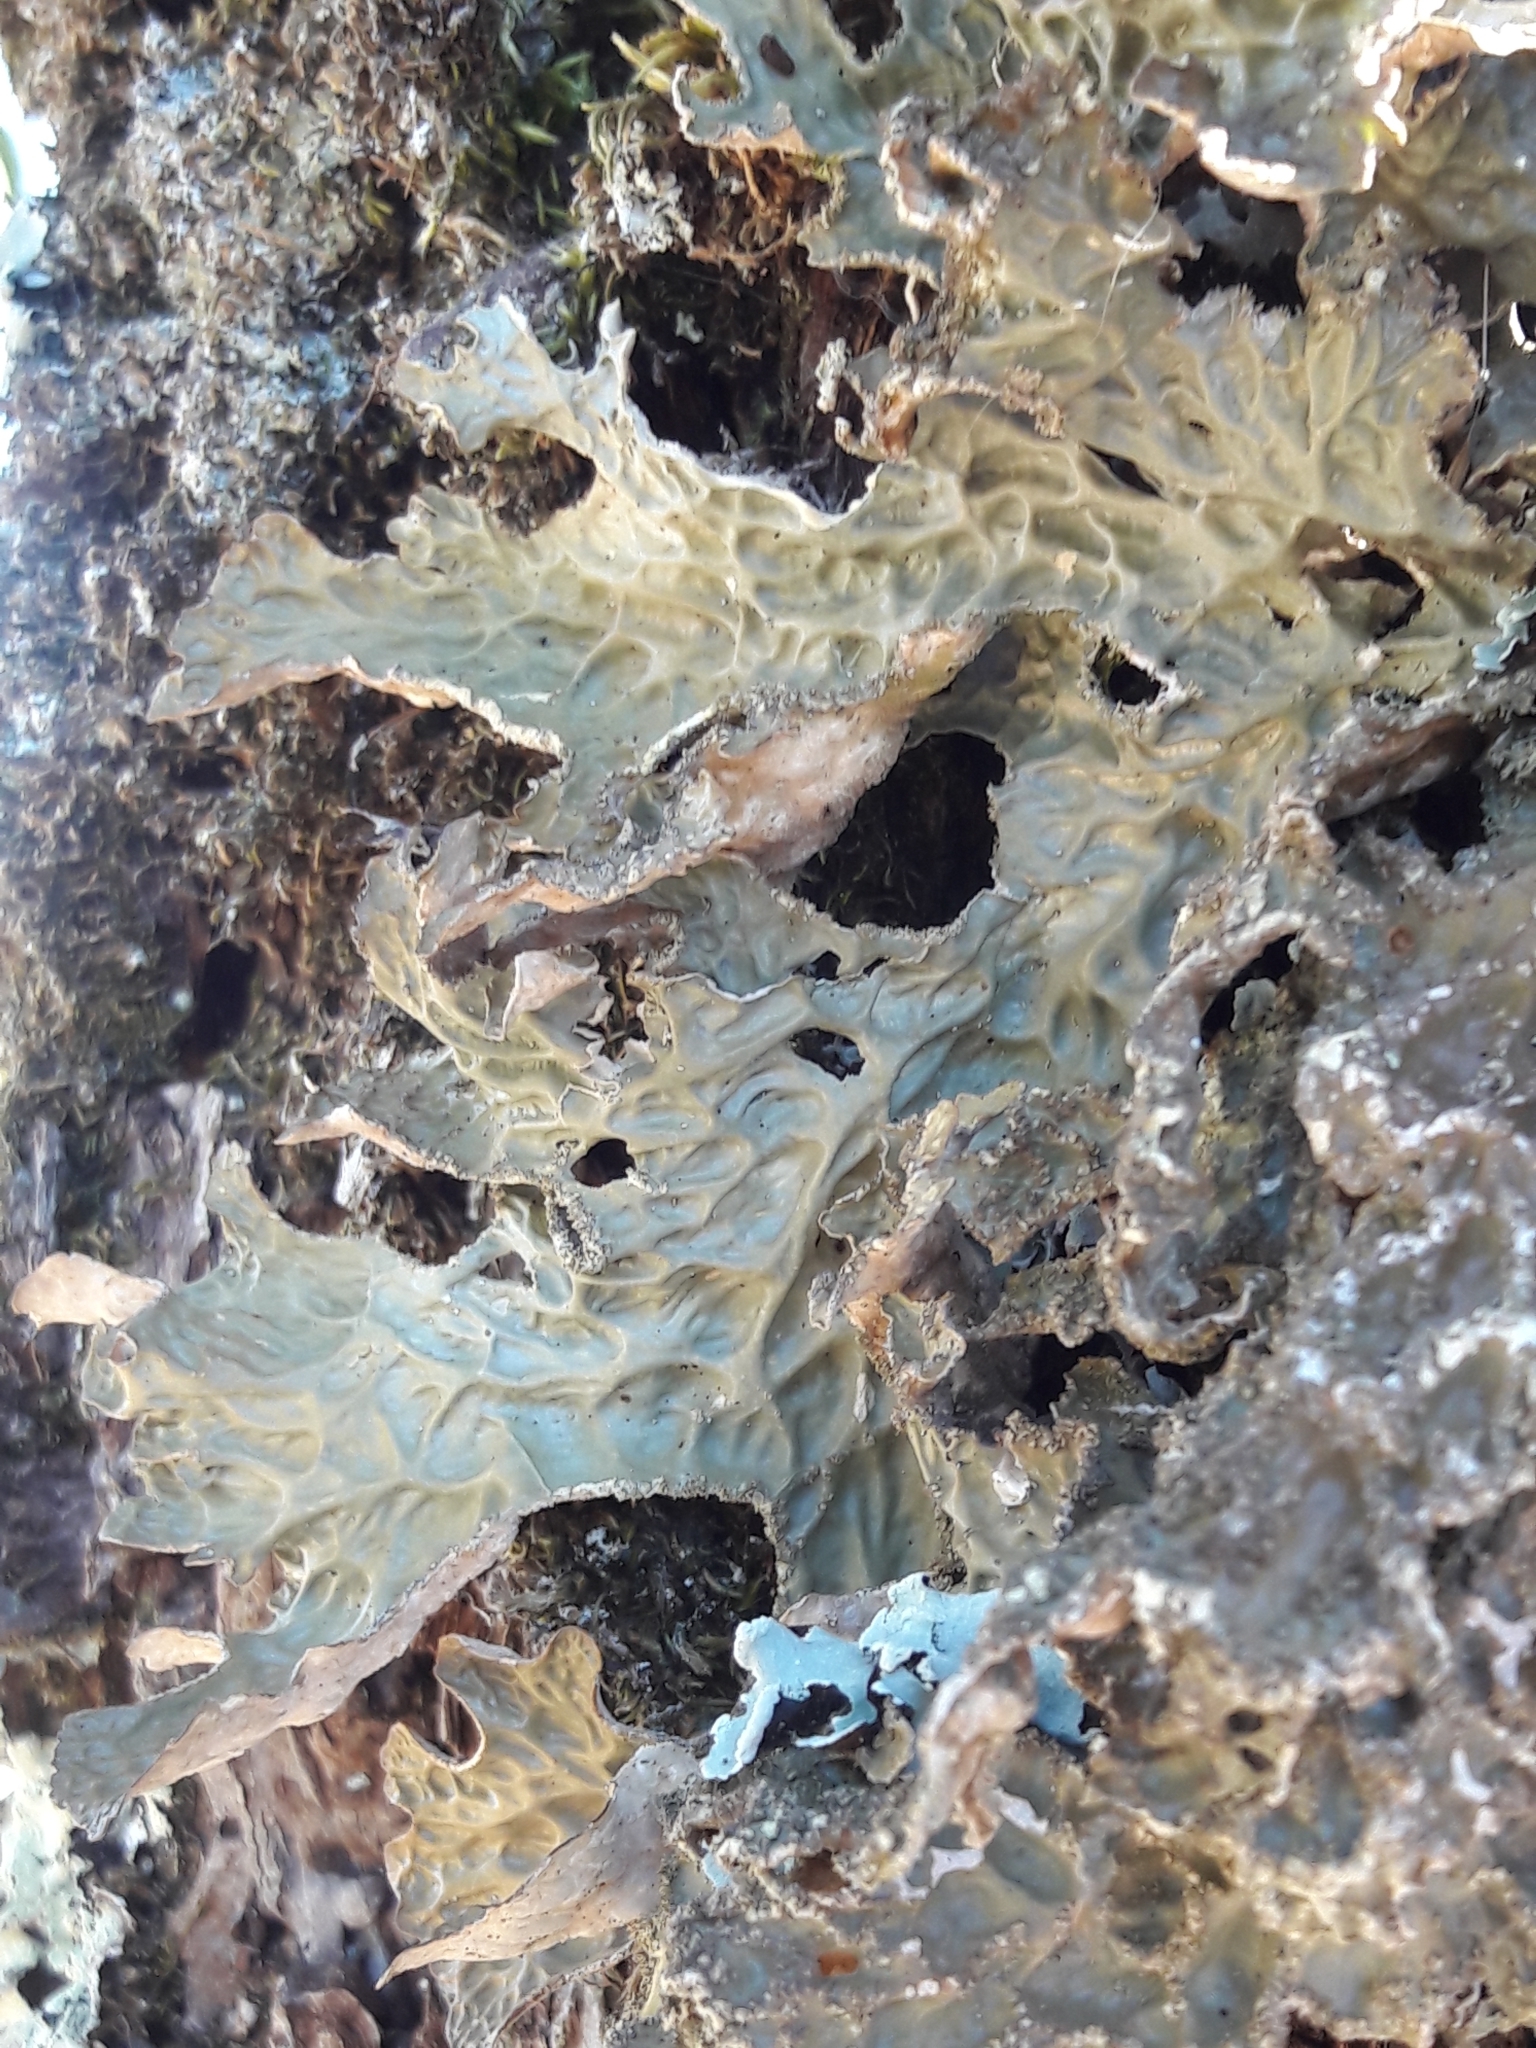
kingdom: Fungi
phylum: Ascomycota
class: Lecanoromycetes
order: Peltigerales
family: Lobariaceae
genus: Lobaria
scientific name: Lobaria pulmonaria
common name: Lungwort
